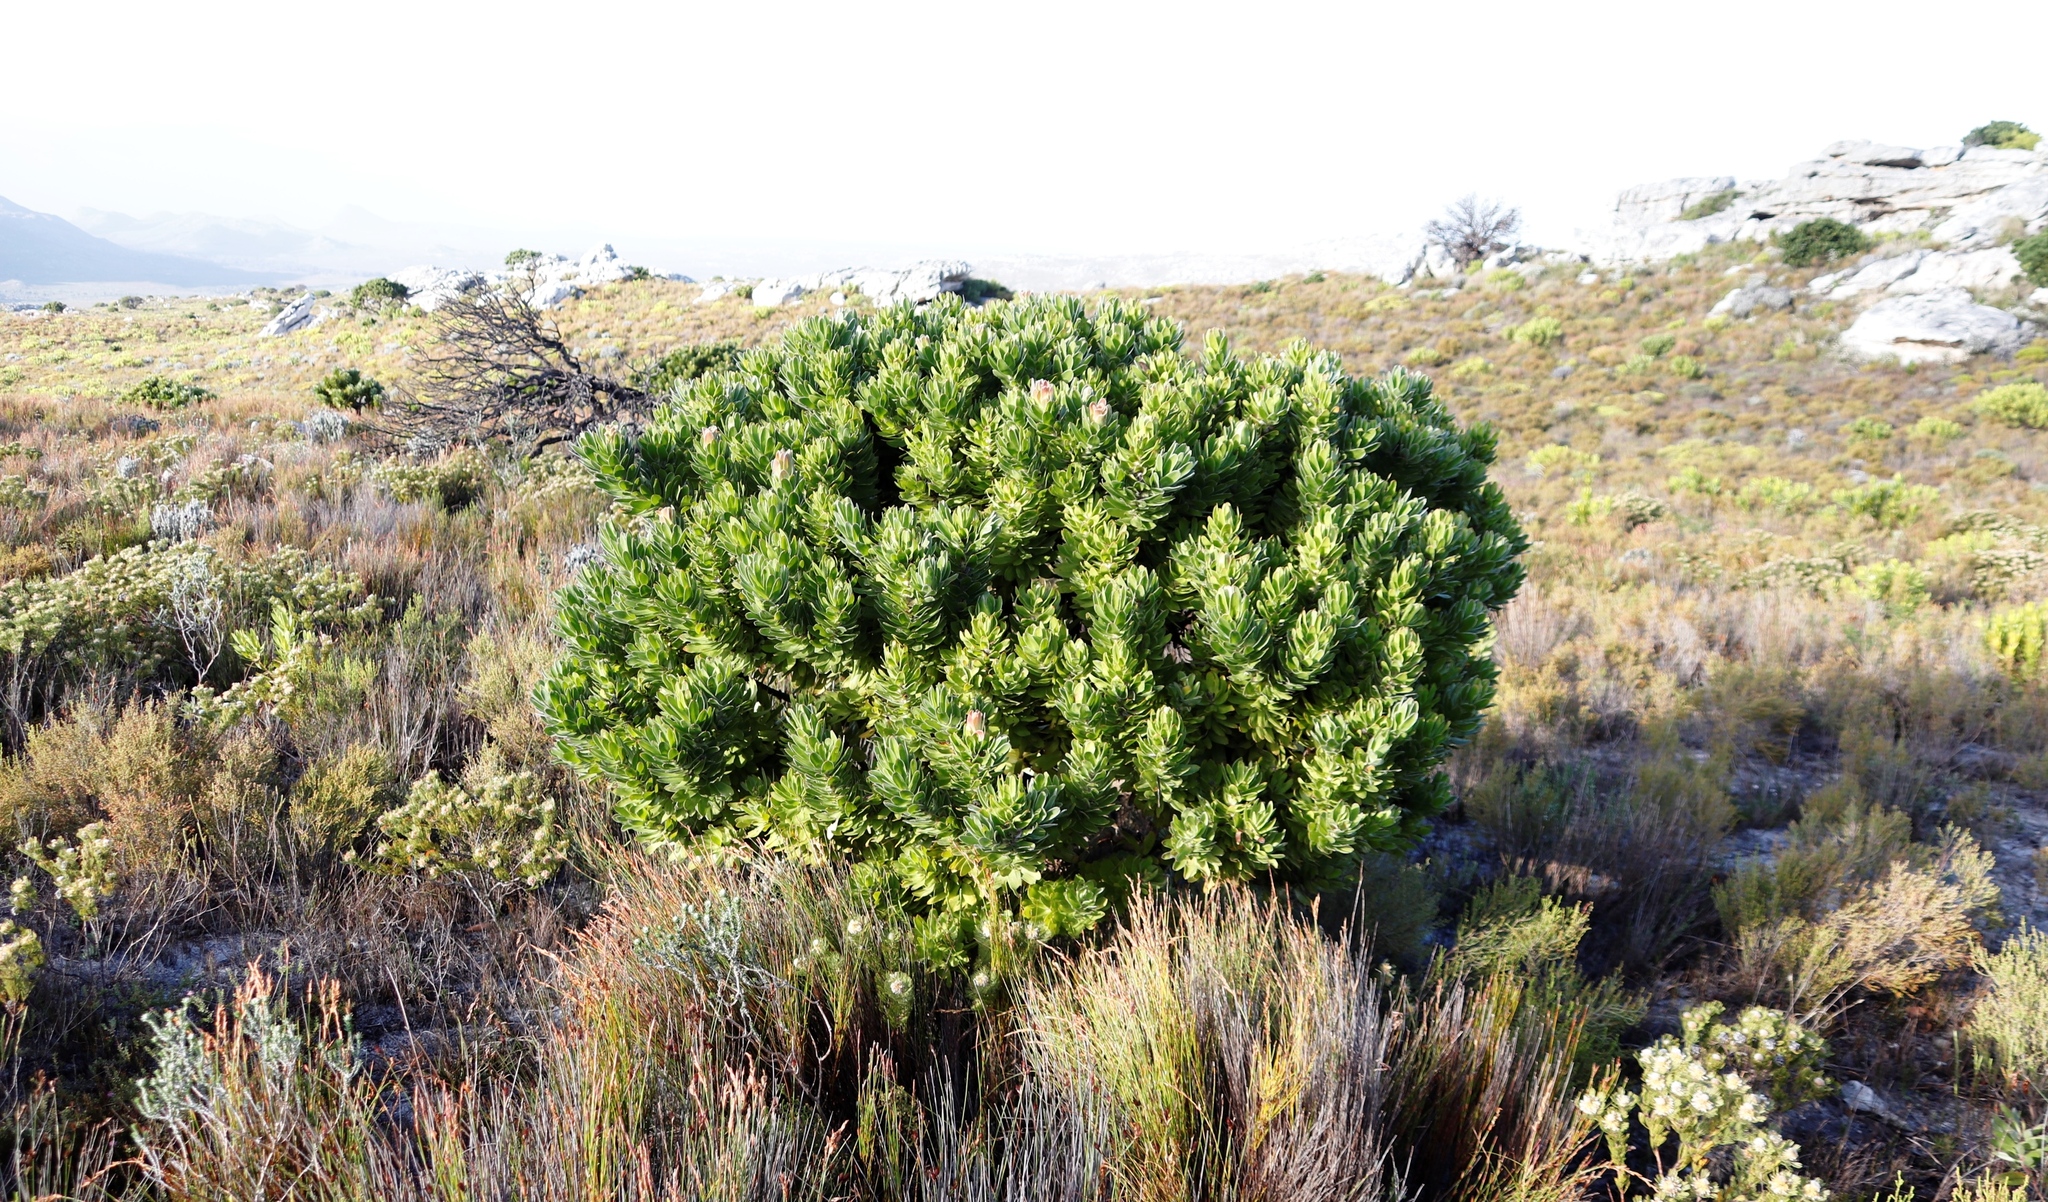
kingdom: Plantae
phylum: Tracheophyta
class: Magnoliopsida
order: Proteales
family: Proteaceae
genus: Mimetes
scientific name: Mimetes fimbriifolius
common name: Fringed bottlebrush
